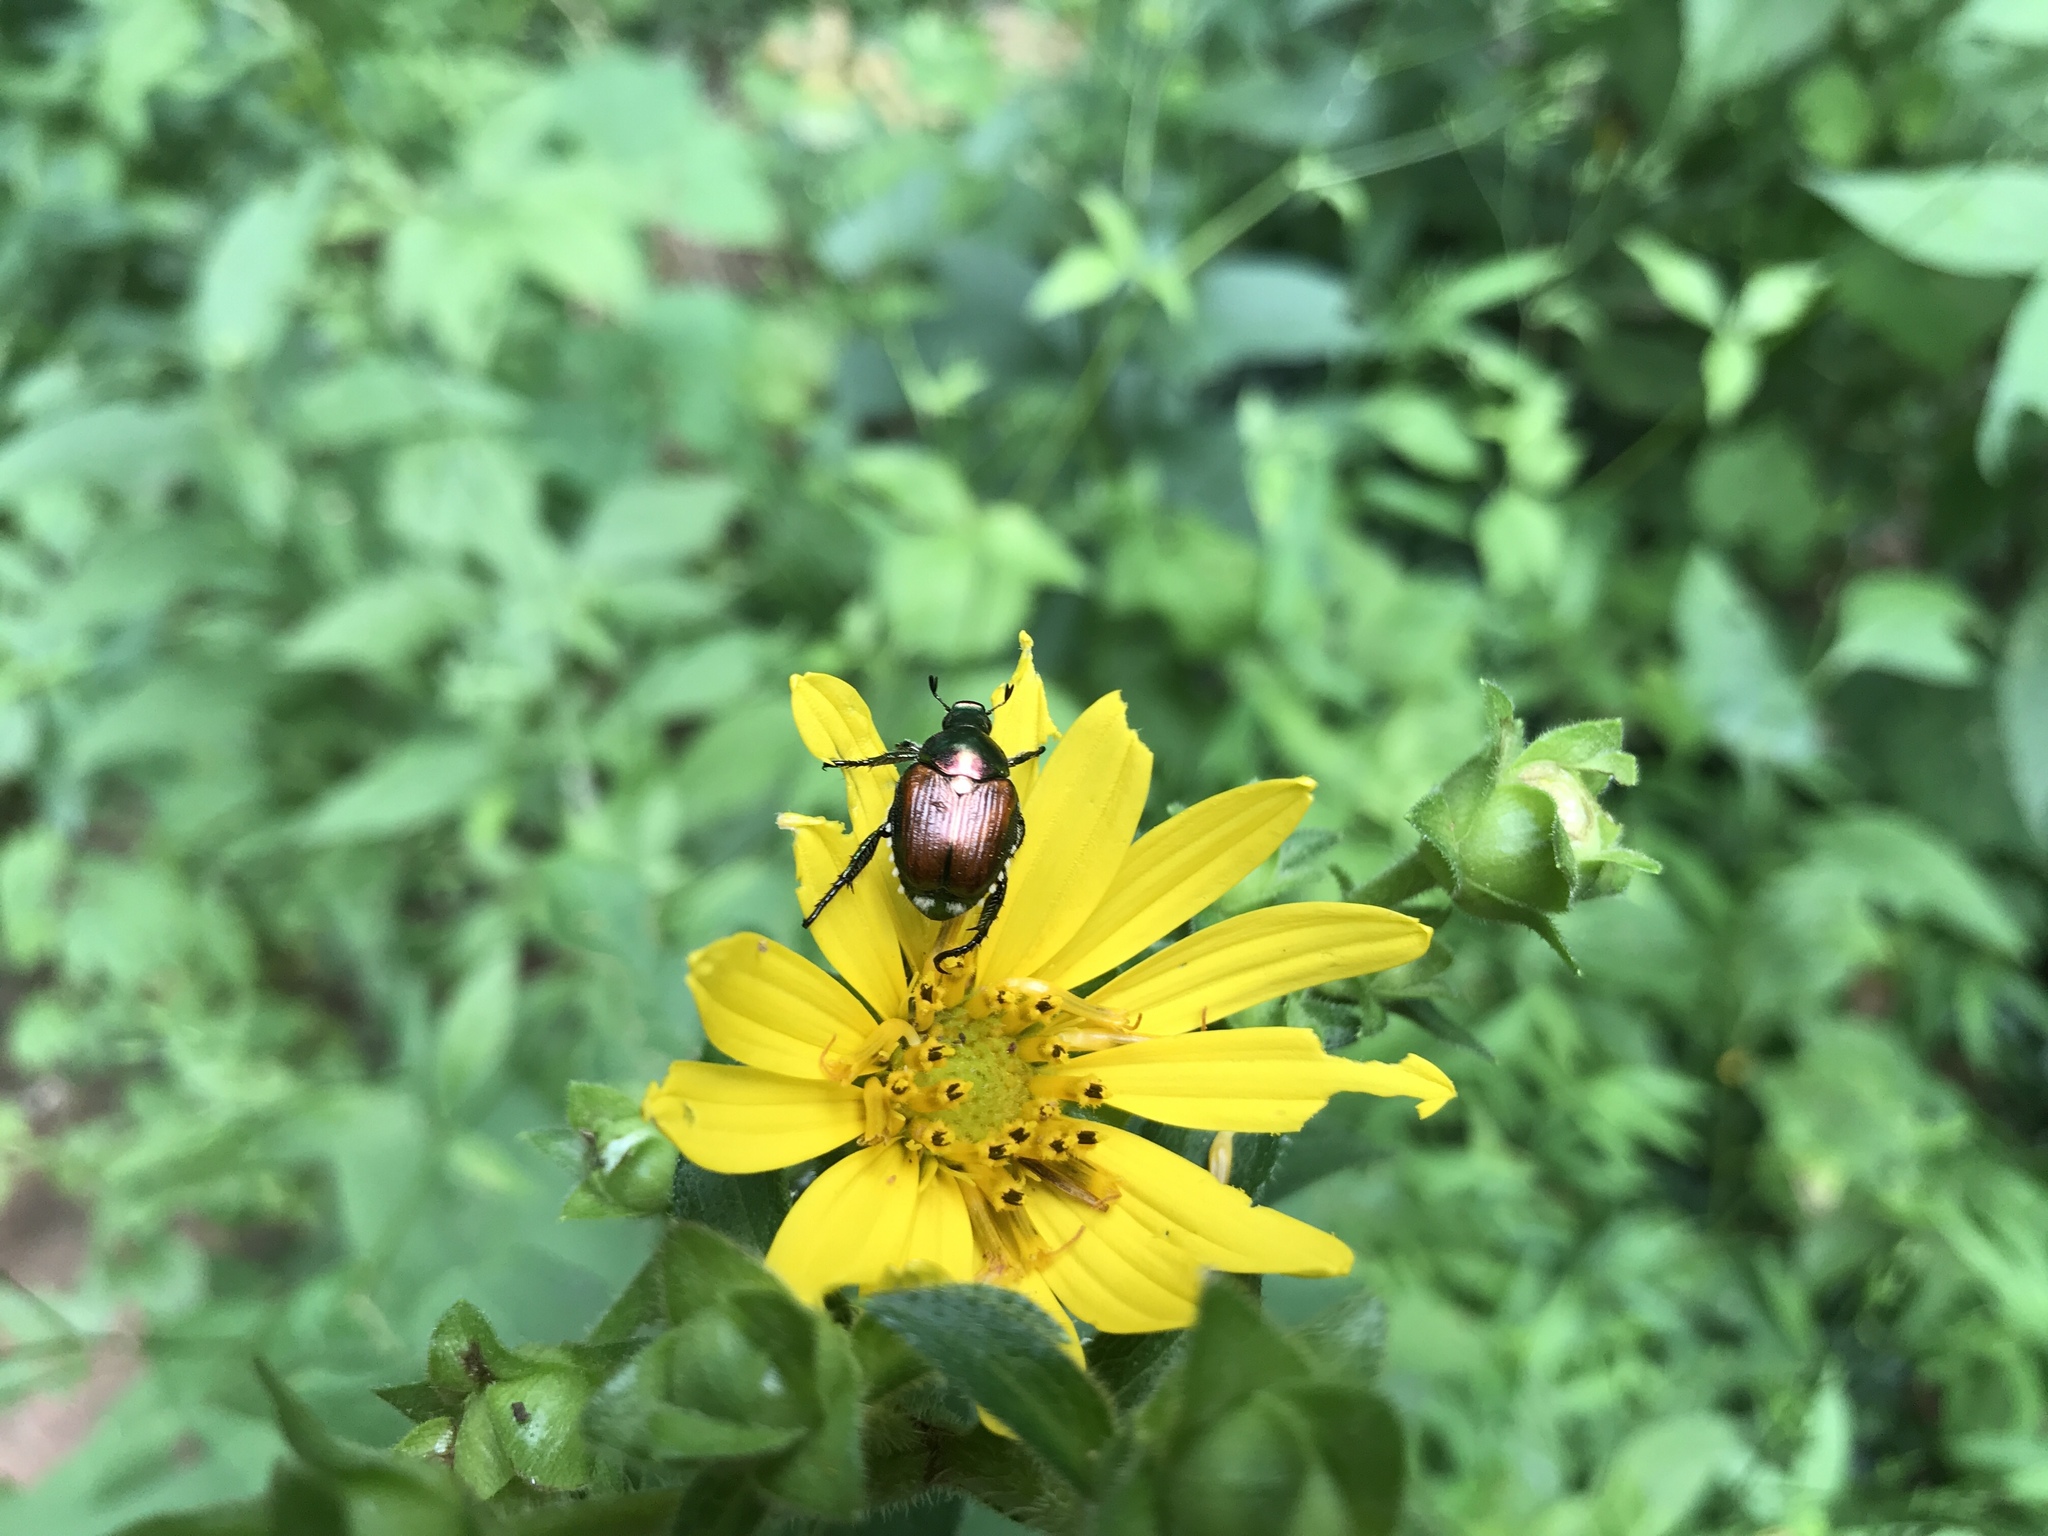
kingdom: Animalia
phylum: Arthropoda
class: Insecta
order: Coleoptera
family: Scarabaeidae
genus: Popillia
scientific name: Popillia japonica
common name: Japanese beetle
